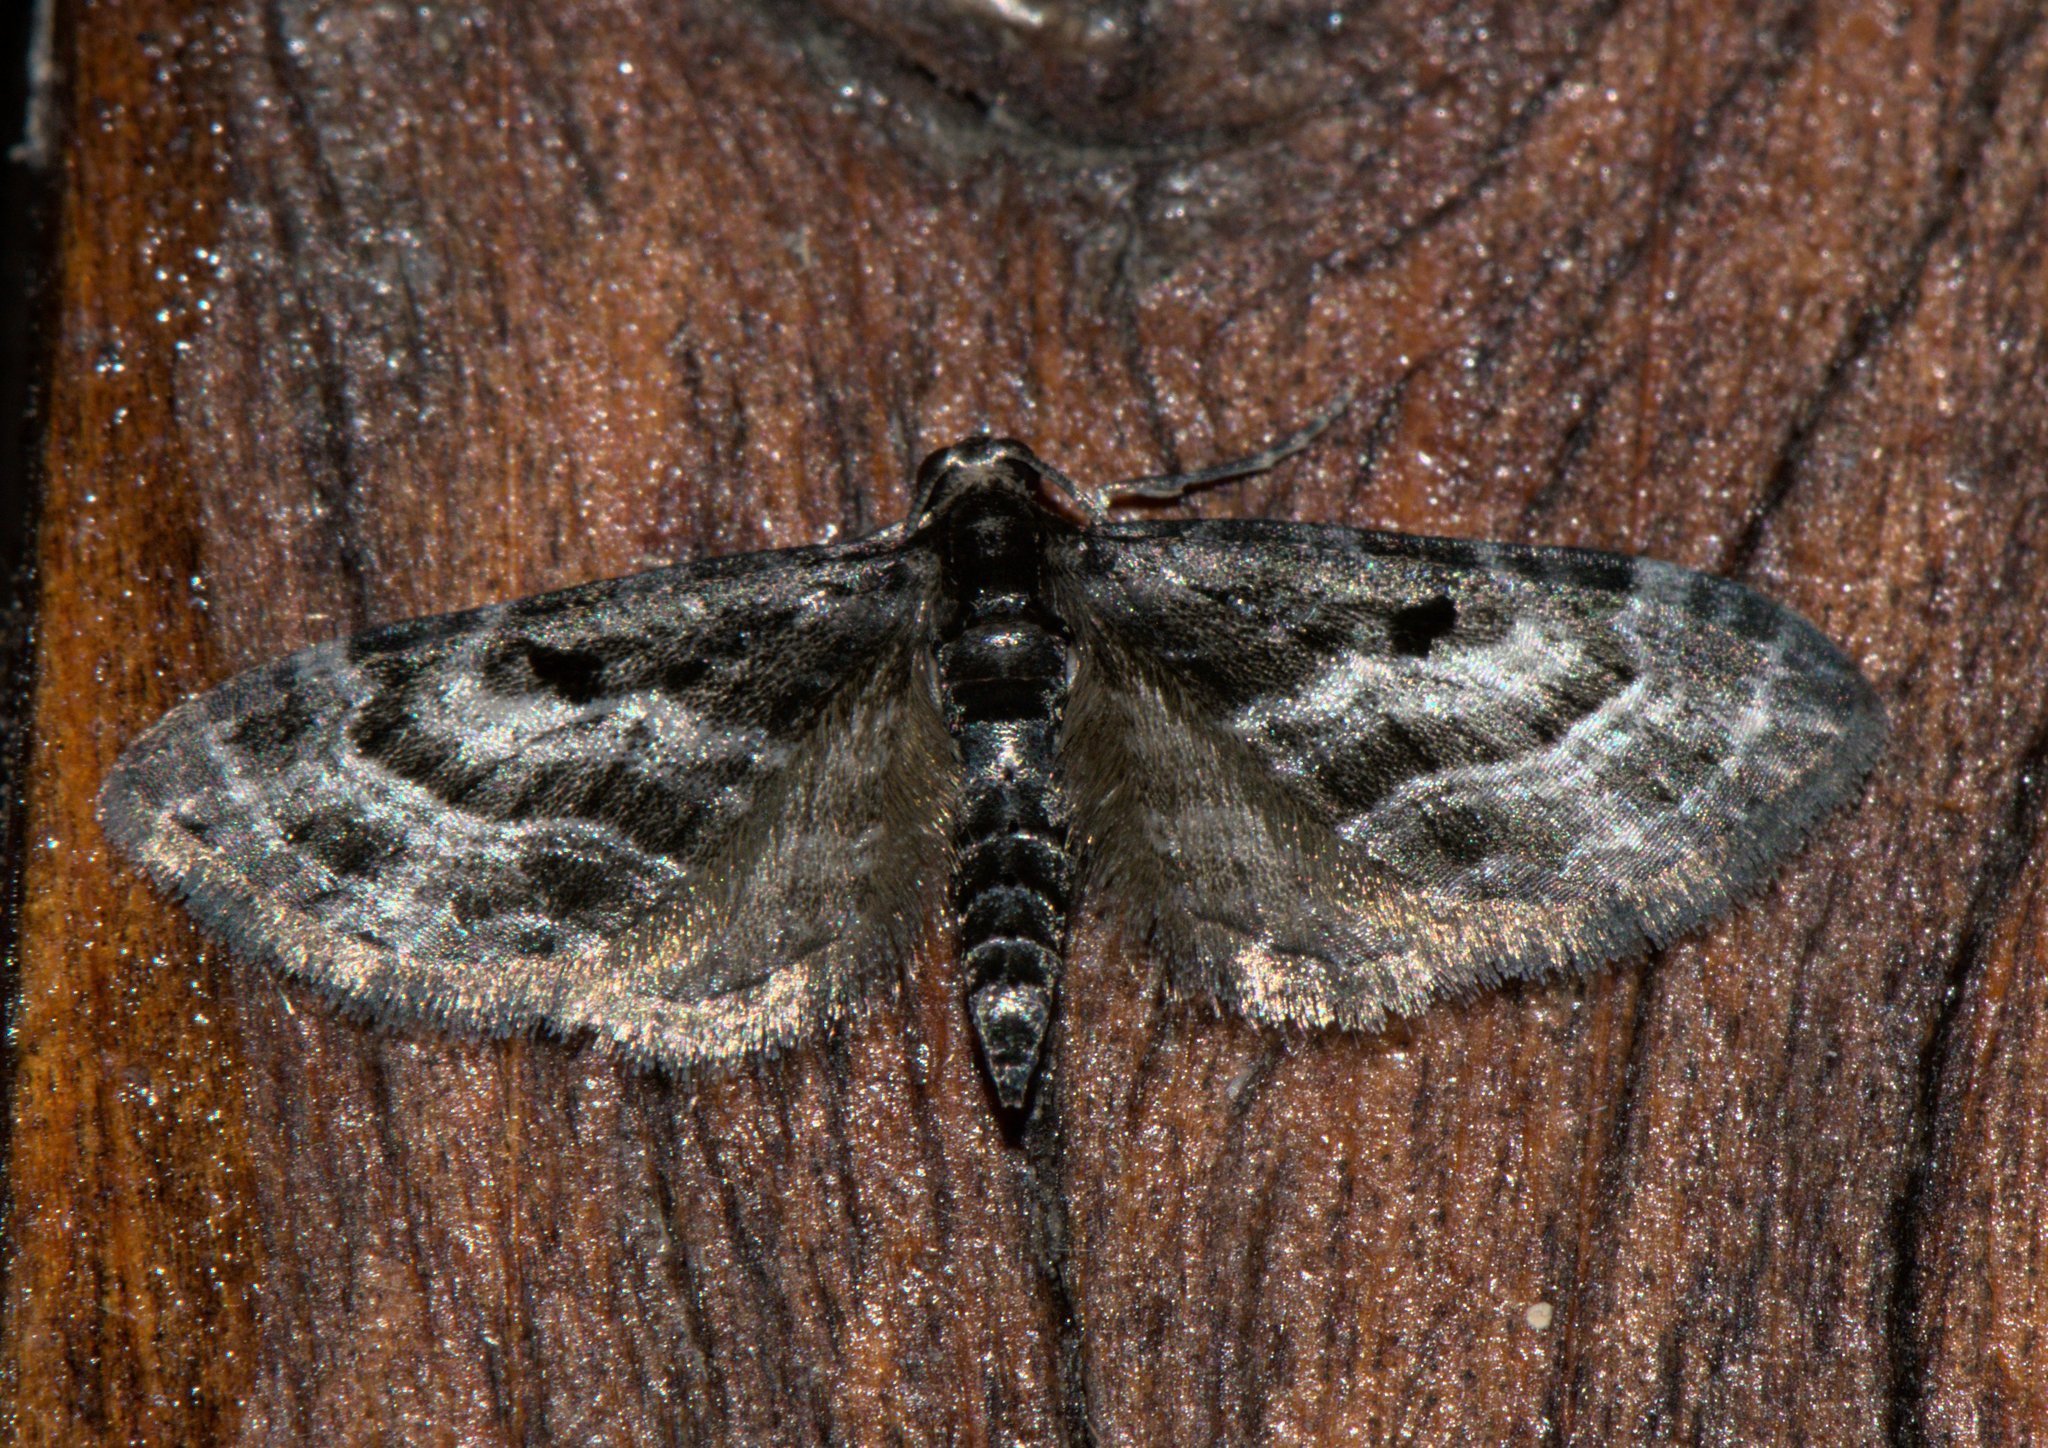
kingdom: Animalia
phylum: Arthropoda
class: Insecta
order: Lepidoptera
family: Geometridae
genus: Eupithecia
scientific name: Eupithecia atrisignis
